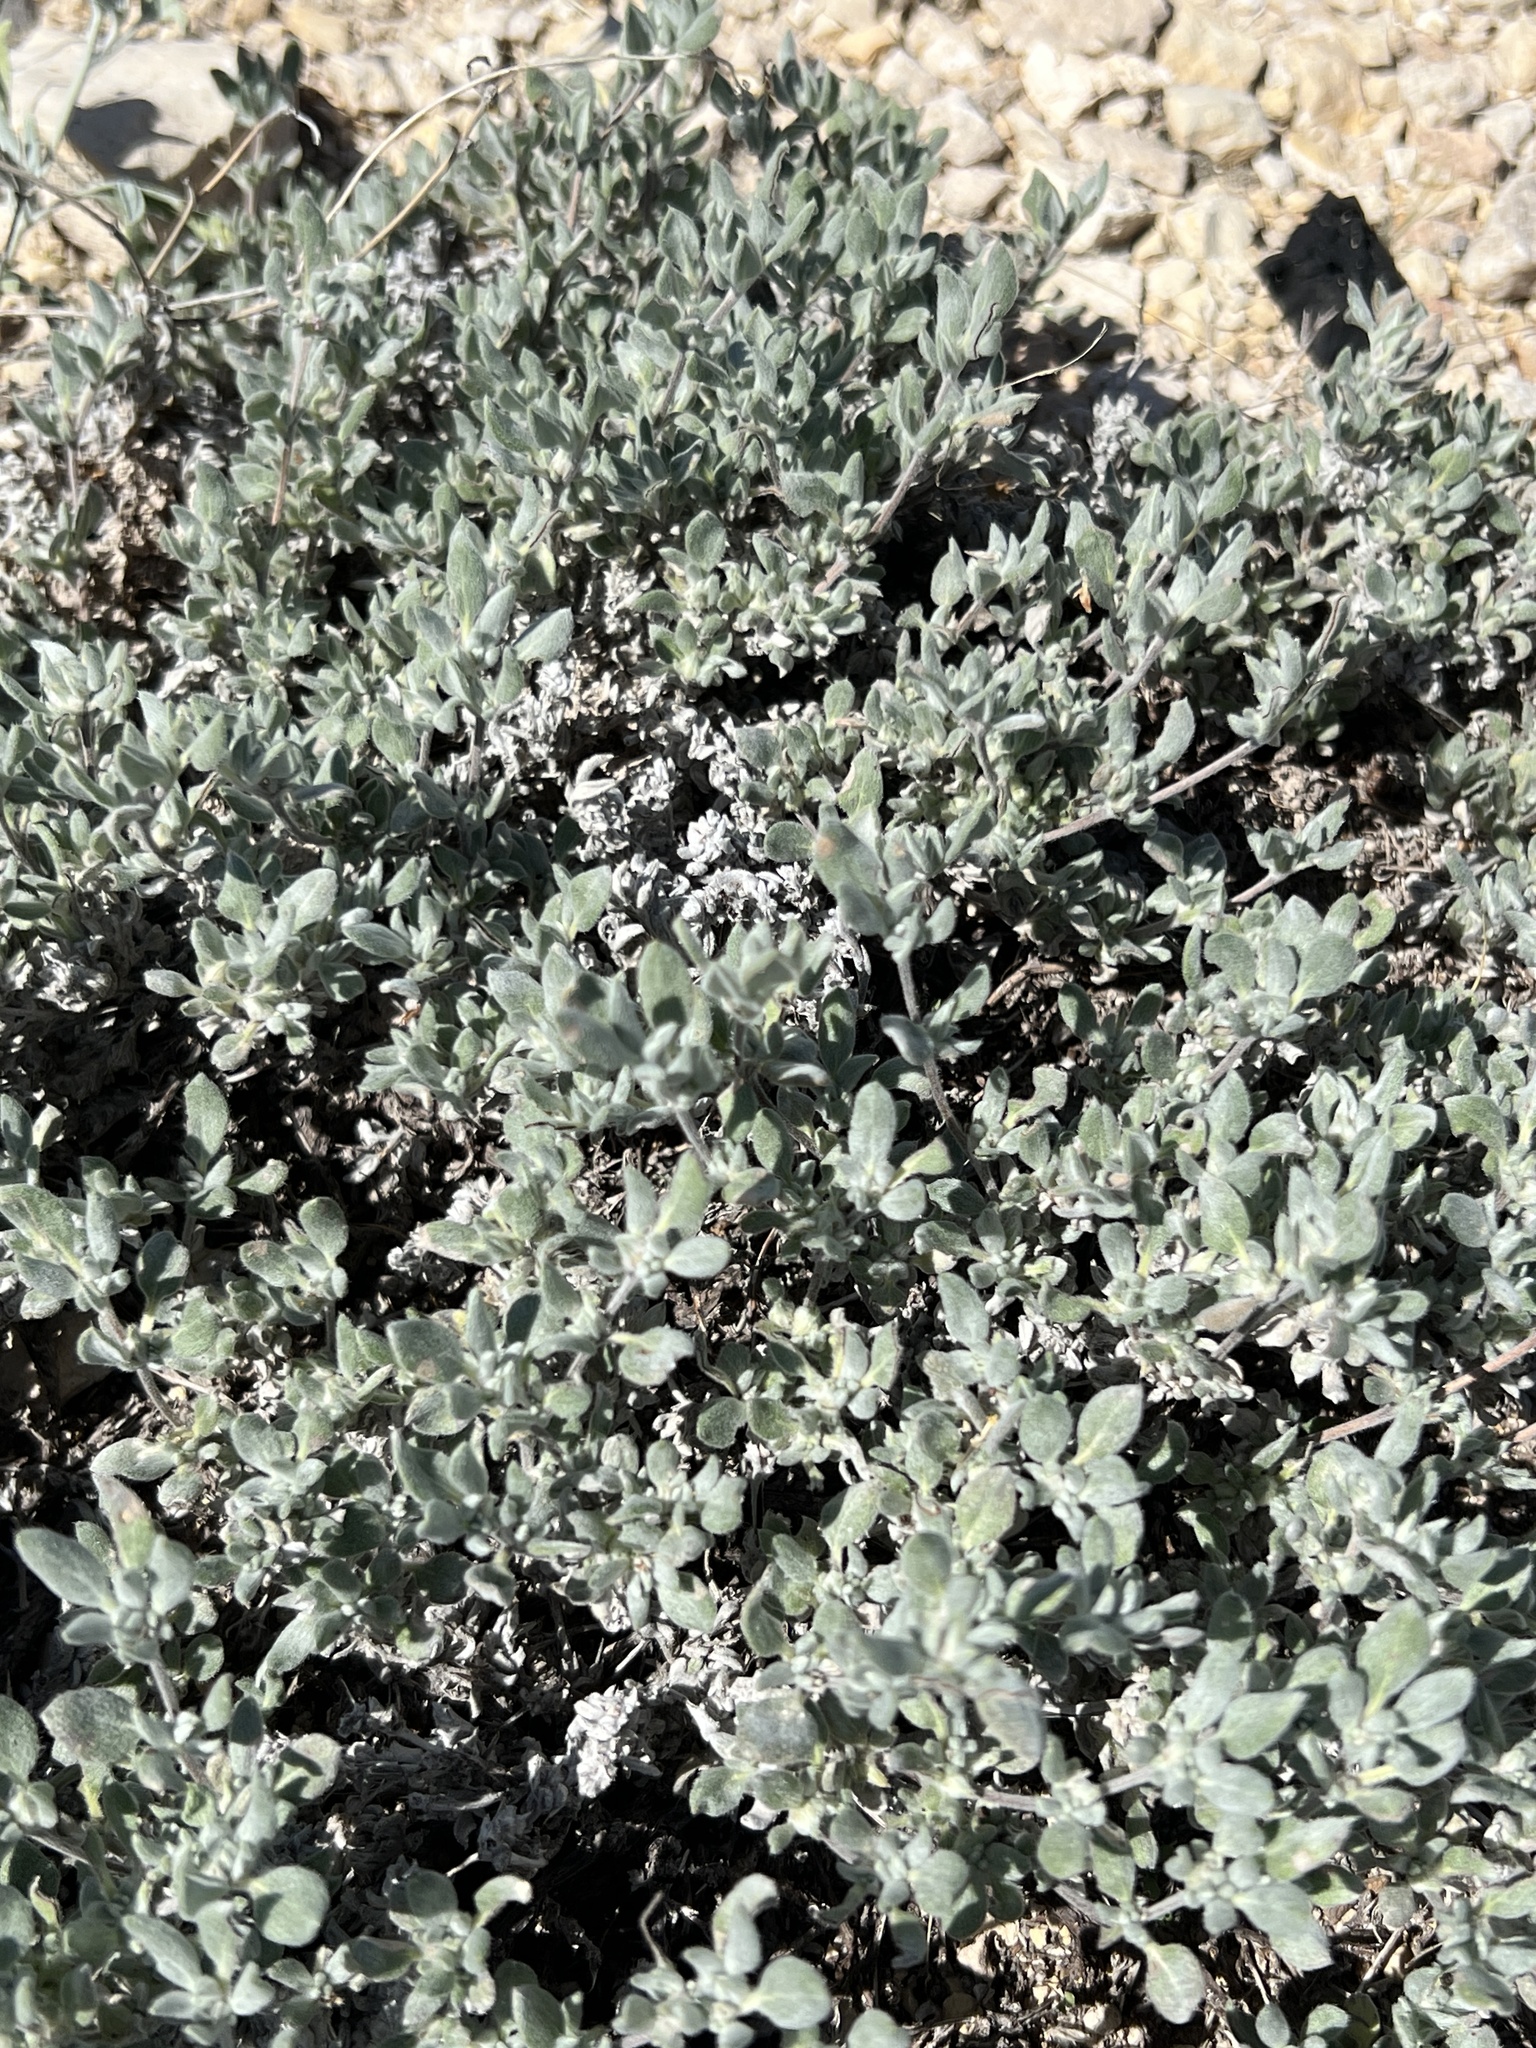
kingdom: Plantae
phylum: Tracheophyta
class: Magnoliopsida
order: Boraginales
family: Ehretiaceae
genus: Tiquilia
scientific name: Tiquilia canescens
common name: Hairy tiquilia
